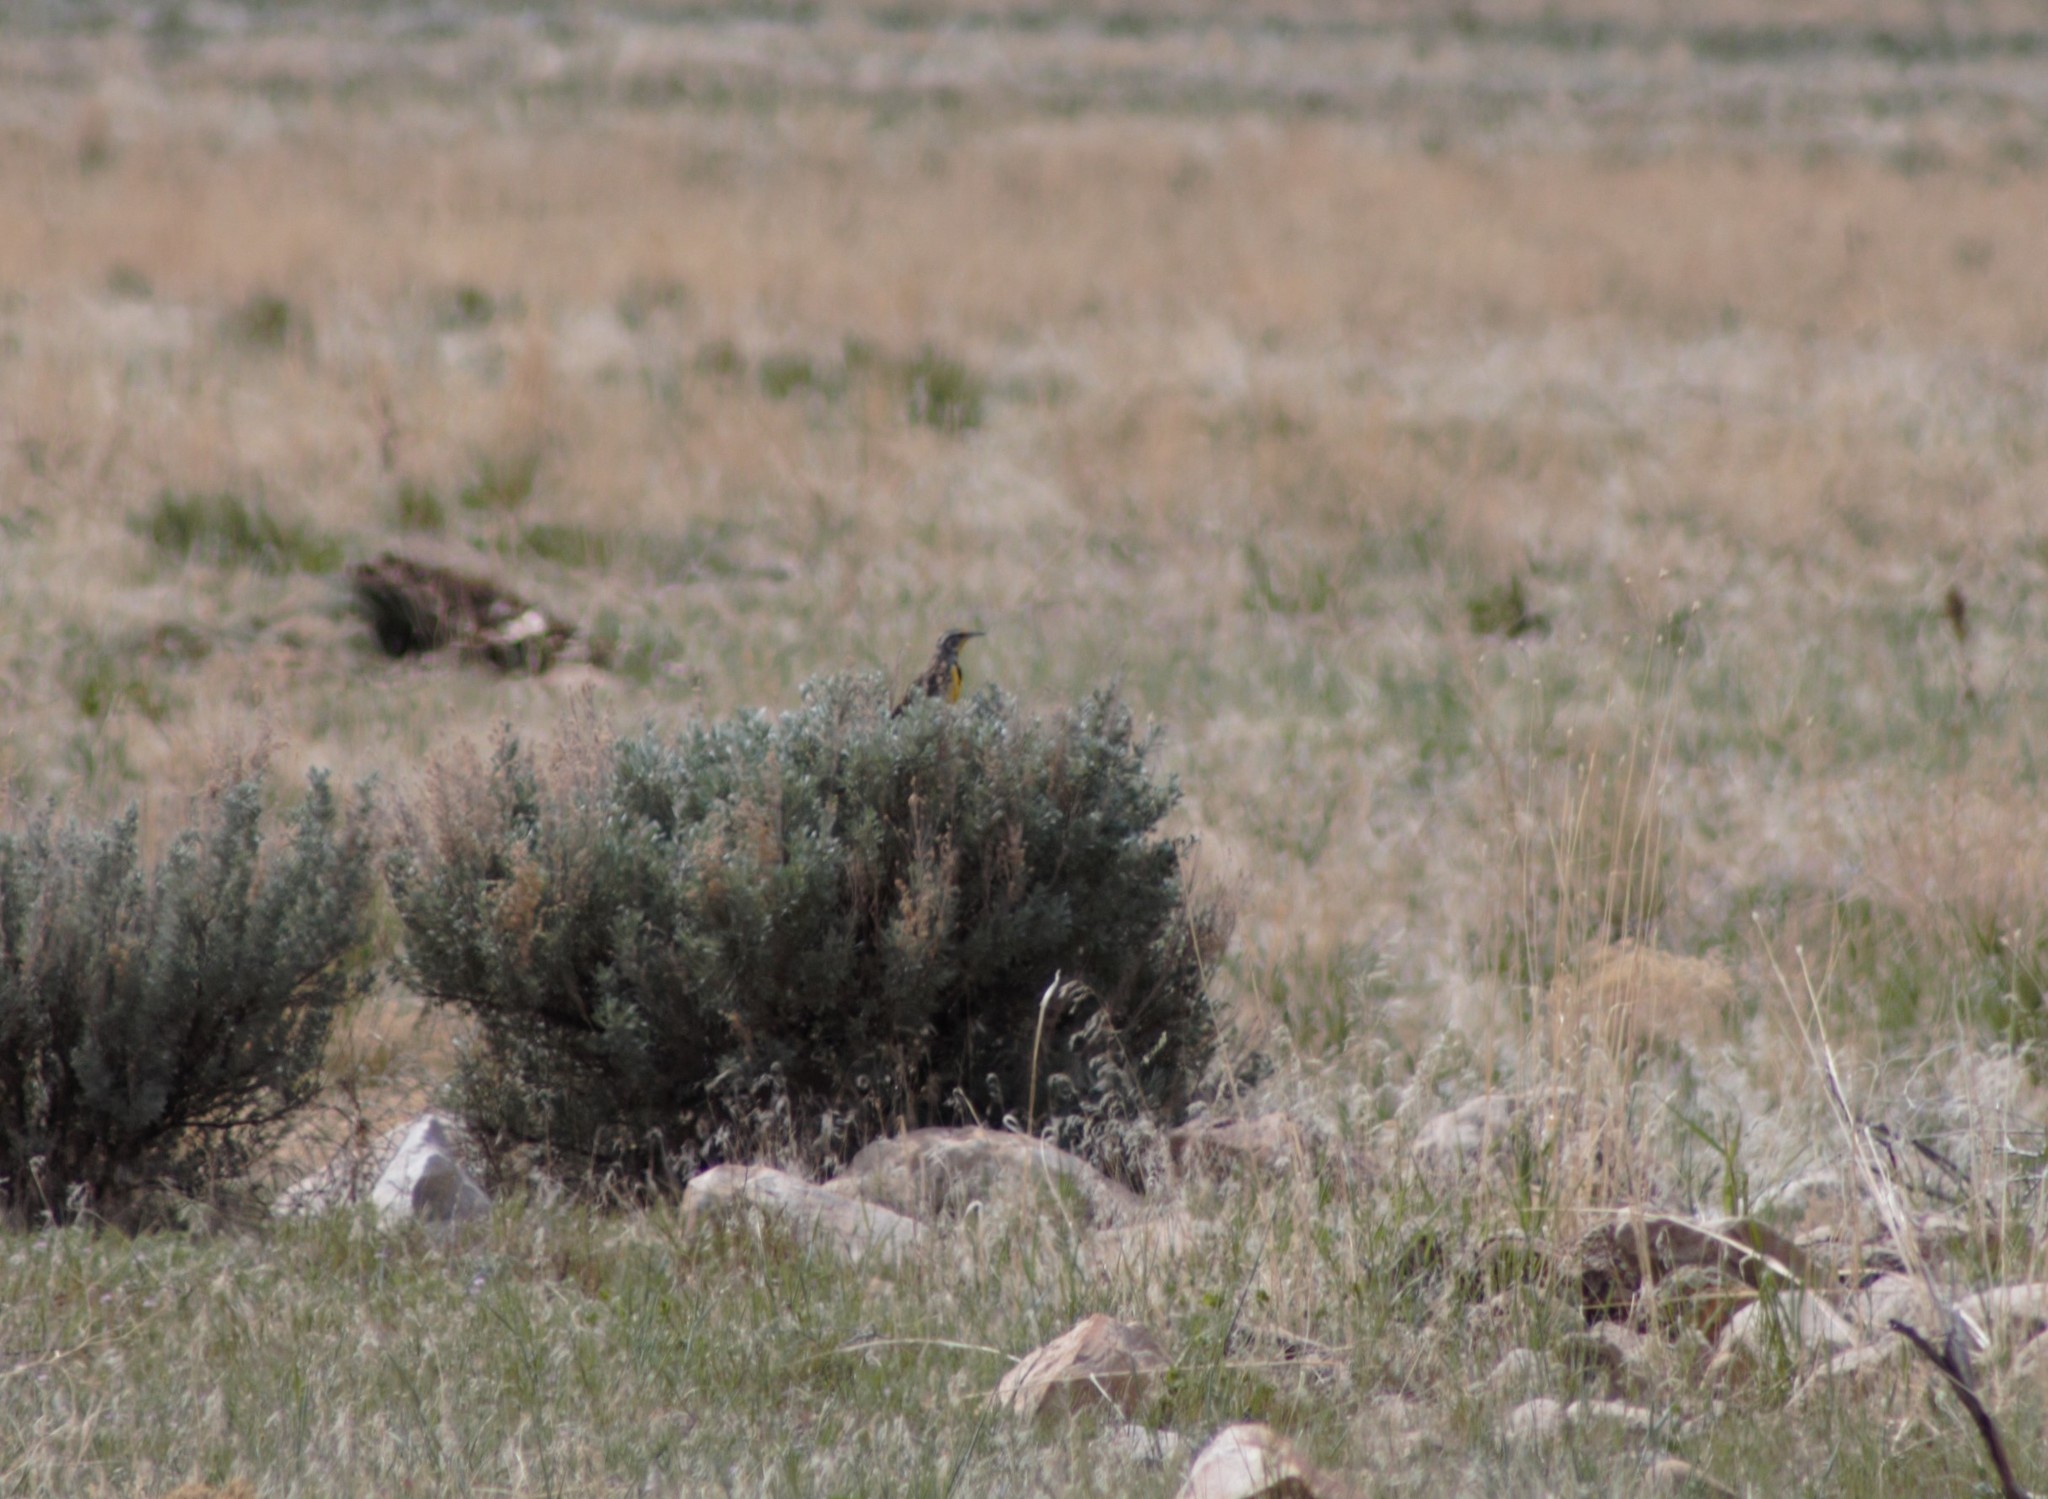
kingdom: Animalia
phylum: Chordata
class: Aves
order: Passeriformes
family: Icteridae
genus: Sturnella
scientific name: Sturnella neglecta
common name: Western meadowlark
